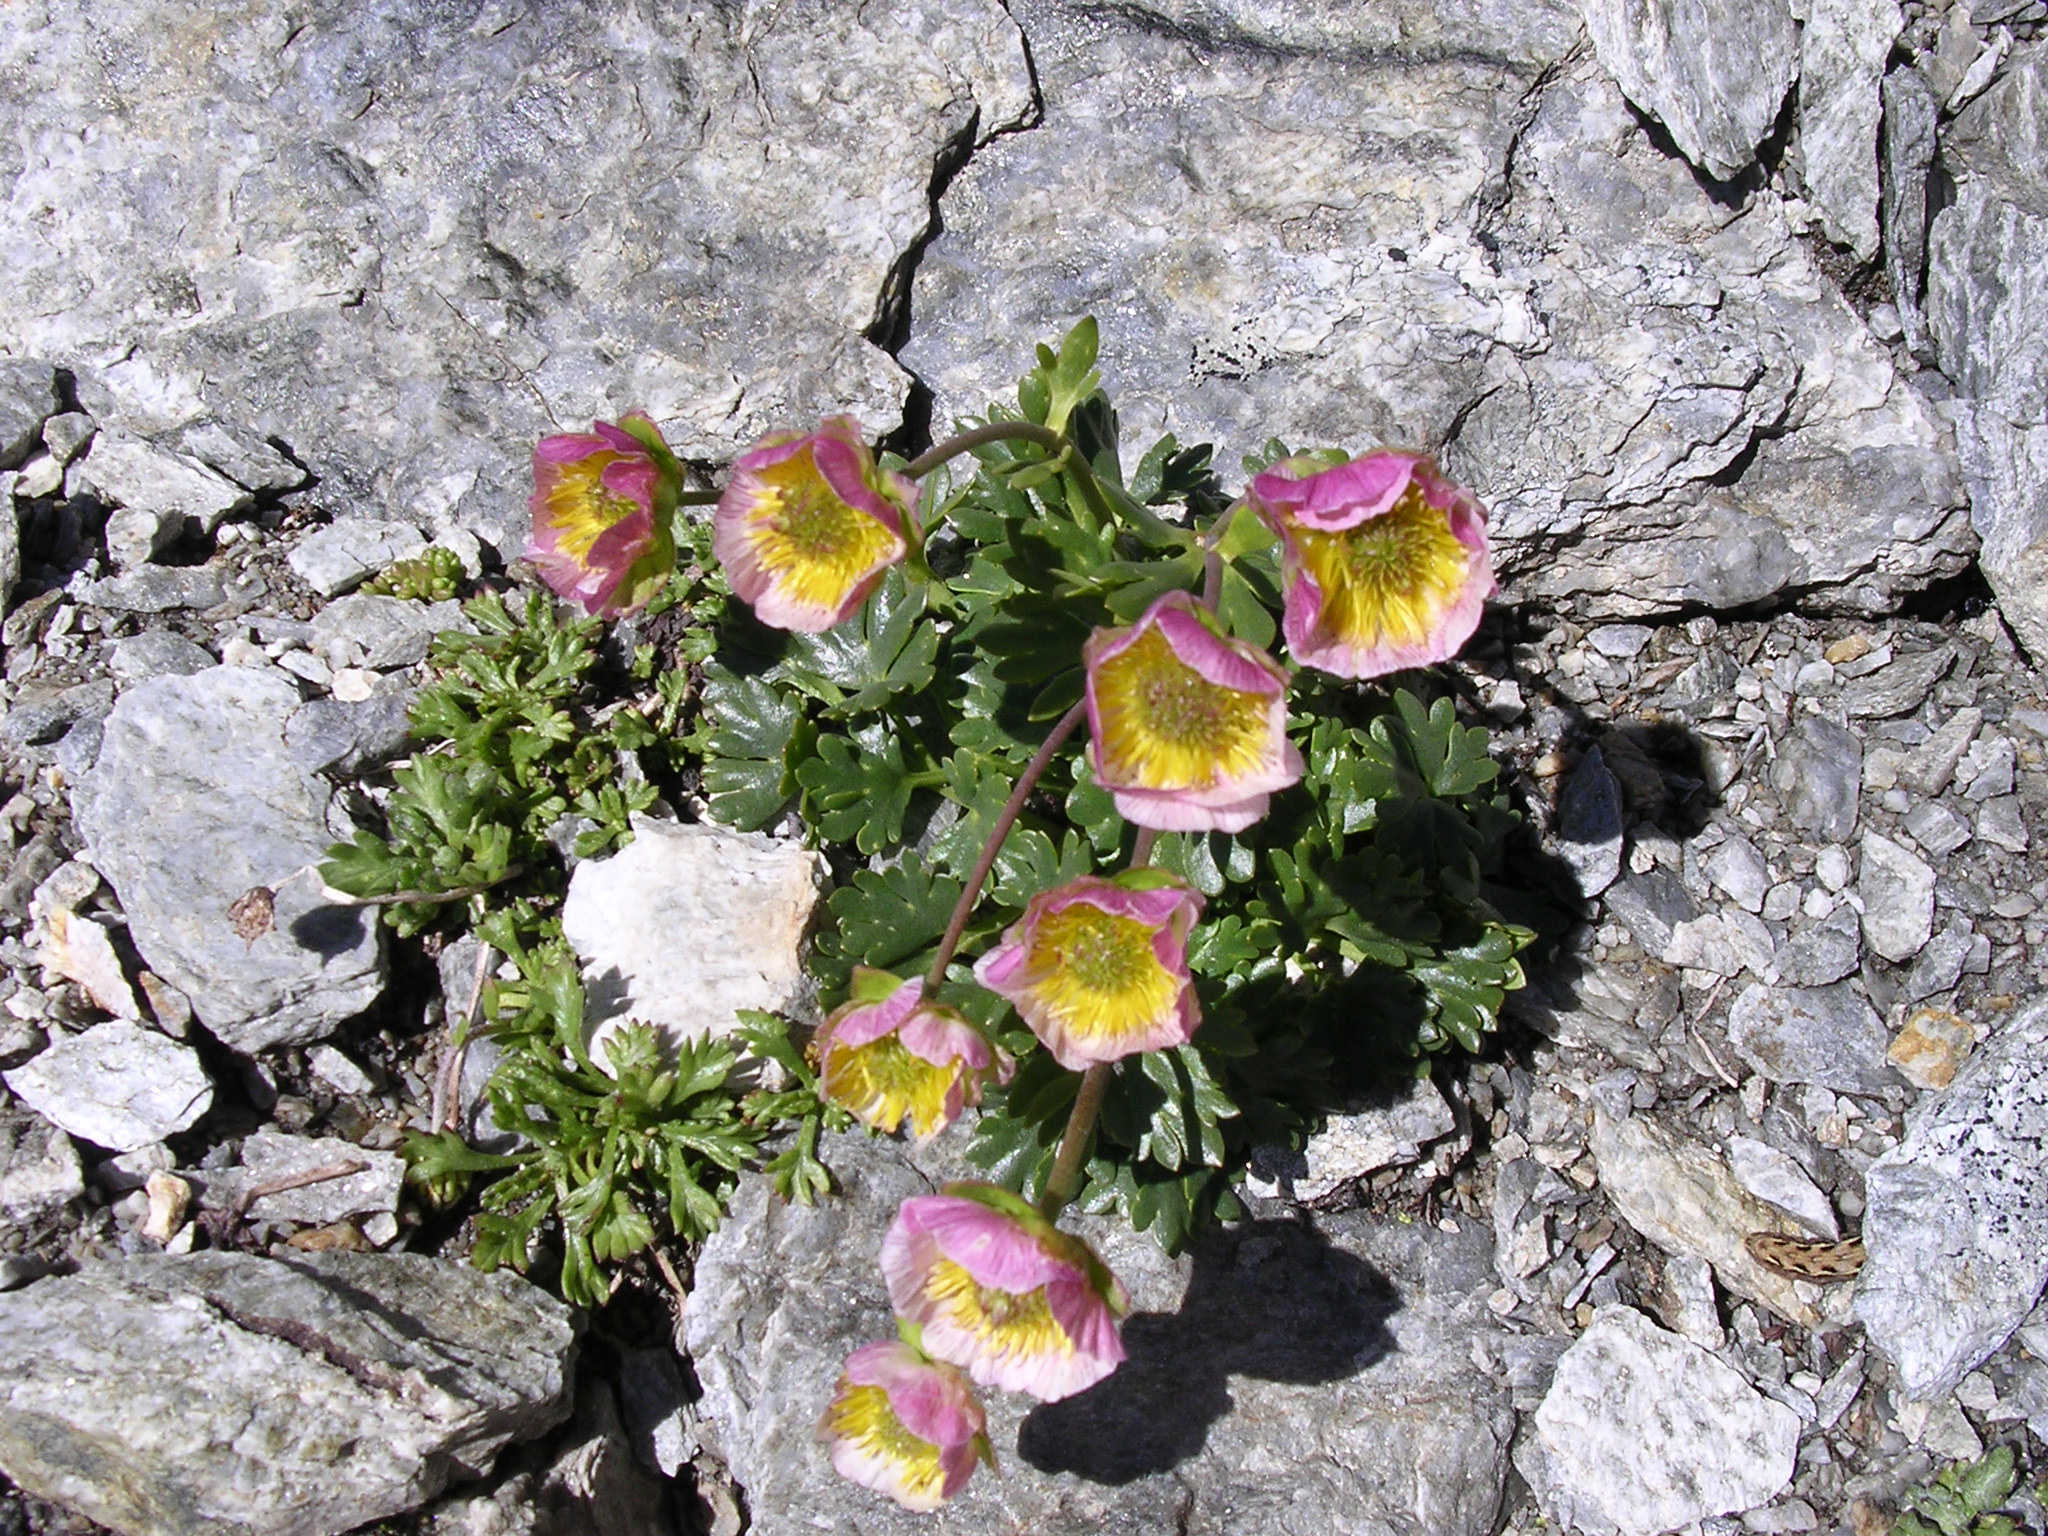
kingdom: Plantae
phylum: Tracheophyta
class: Magnoliopsida
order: Ranunculales
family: Ranunculaceae
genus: Ranunculus
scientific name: Ranunculus glacialis
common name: Glacier buttercup
